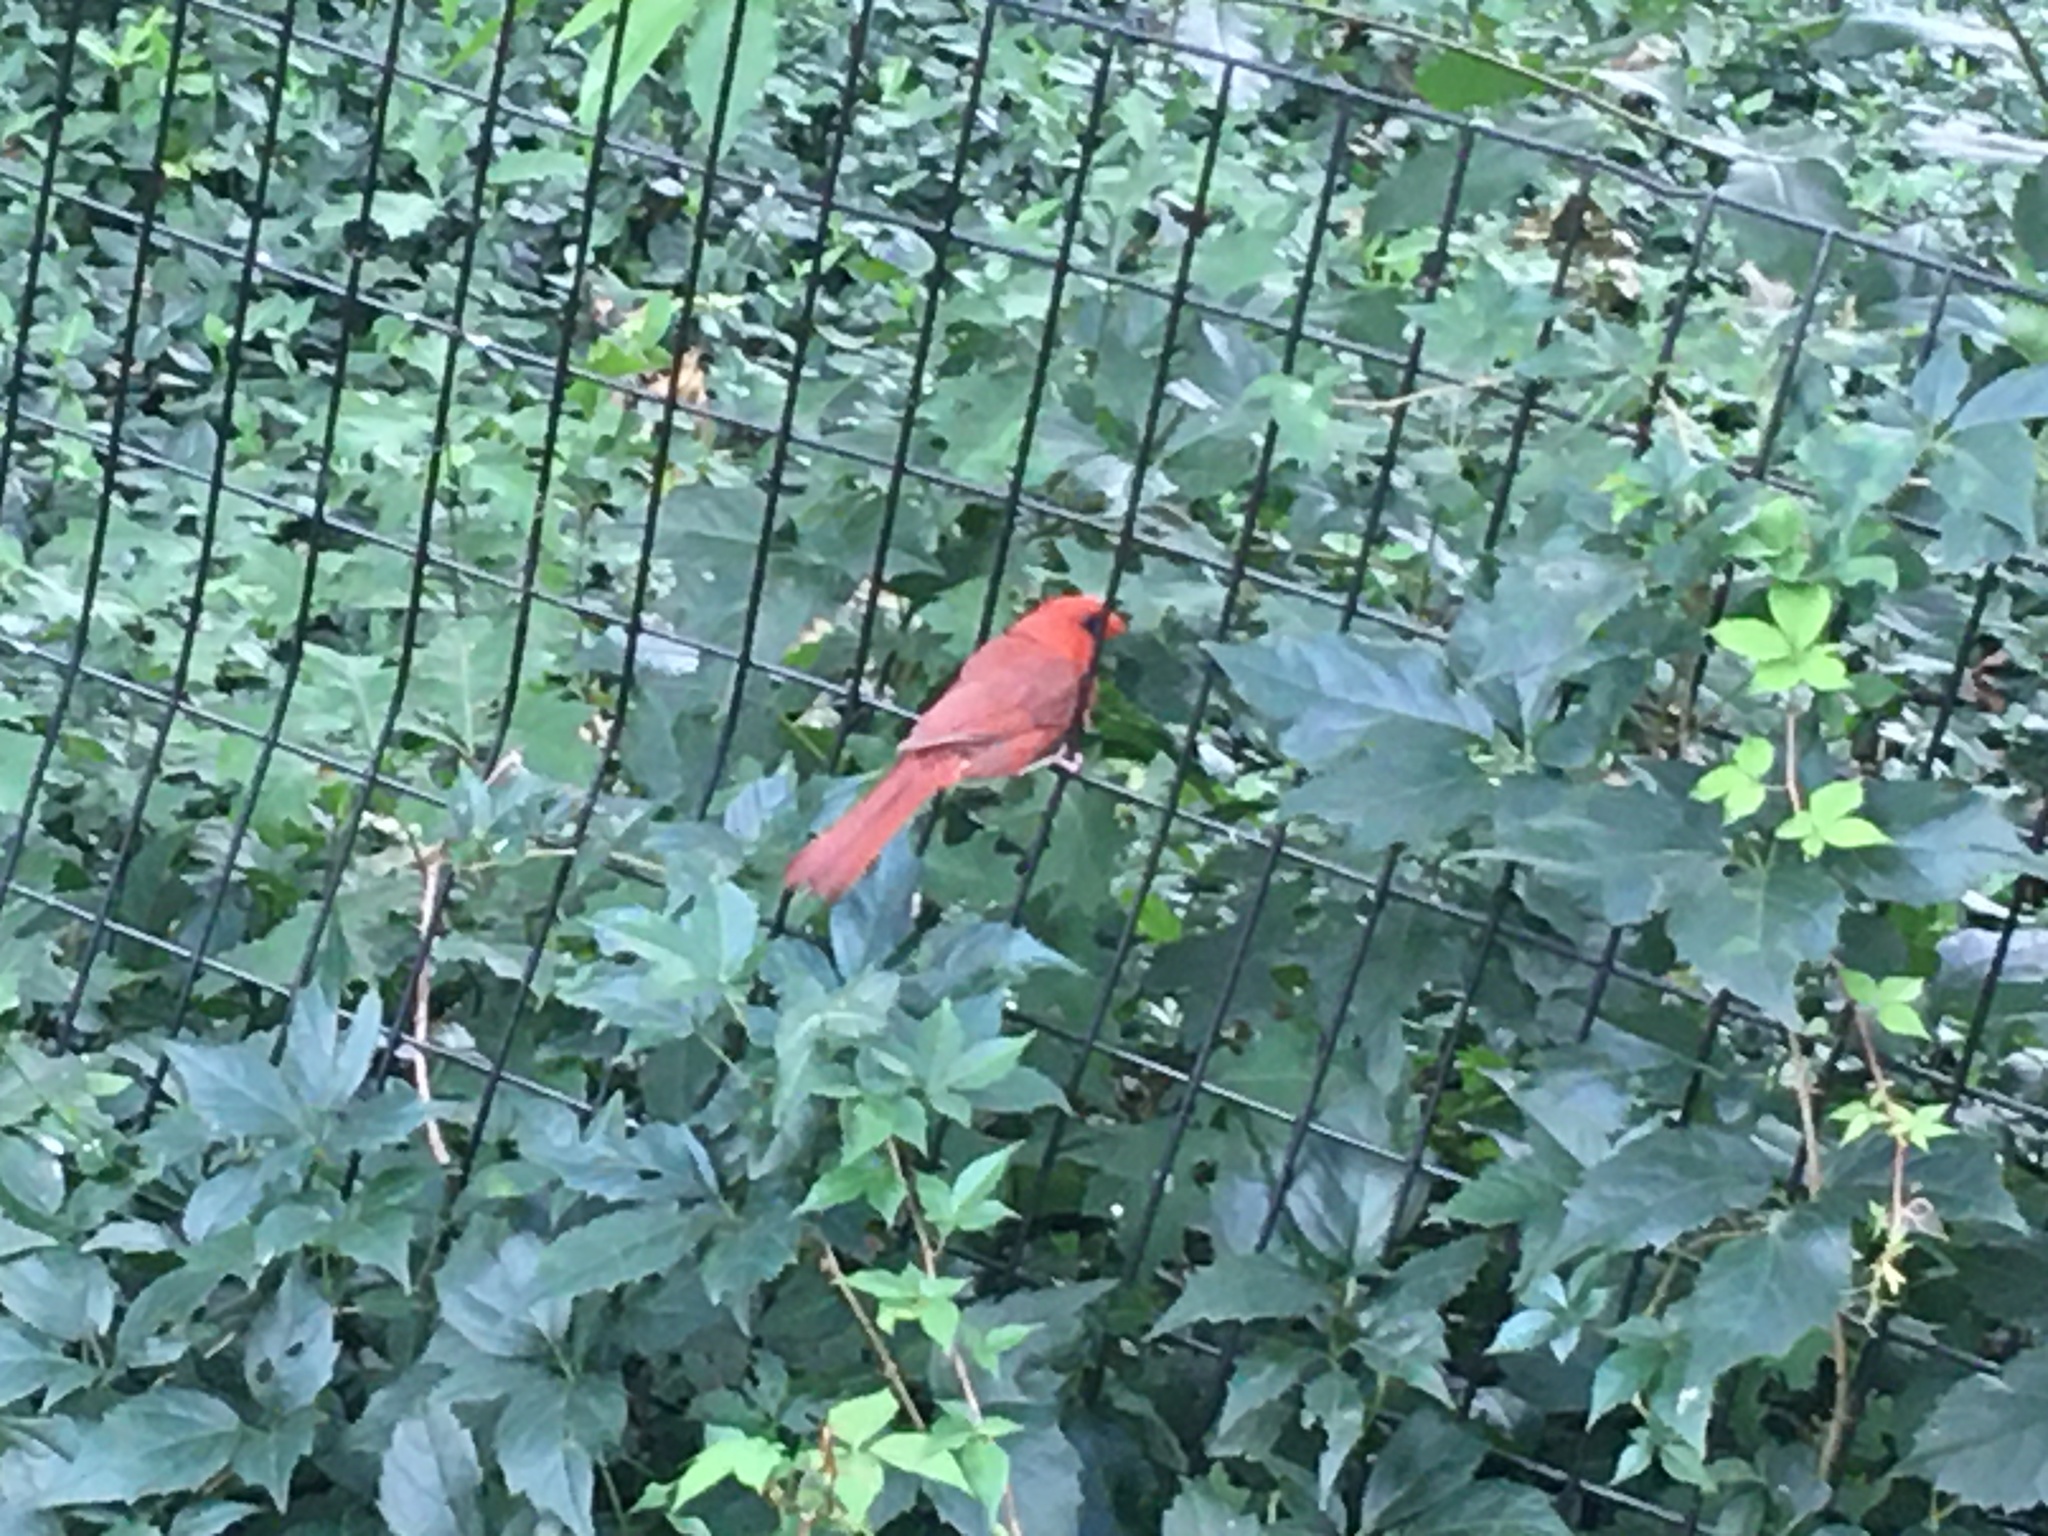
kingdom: Animalia
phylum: Chordata
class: Aves
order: Passeriformes
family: Cardinalidae
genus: Cardinalis
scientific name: Cardinalis cardinalis
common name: Northern cardinal
